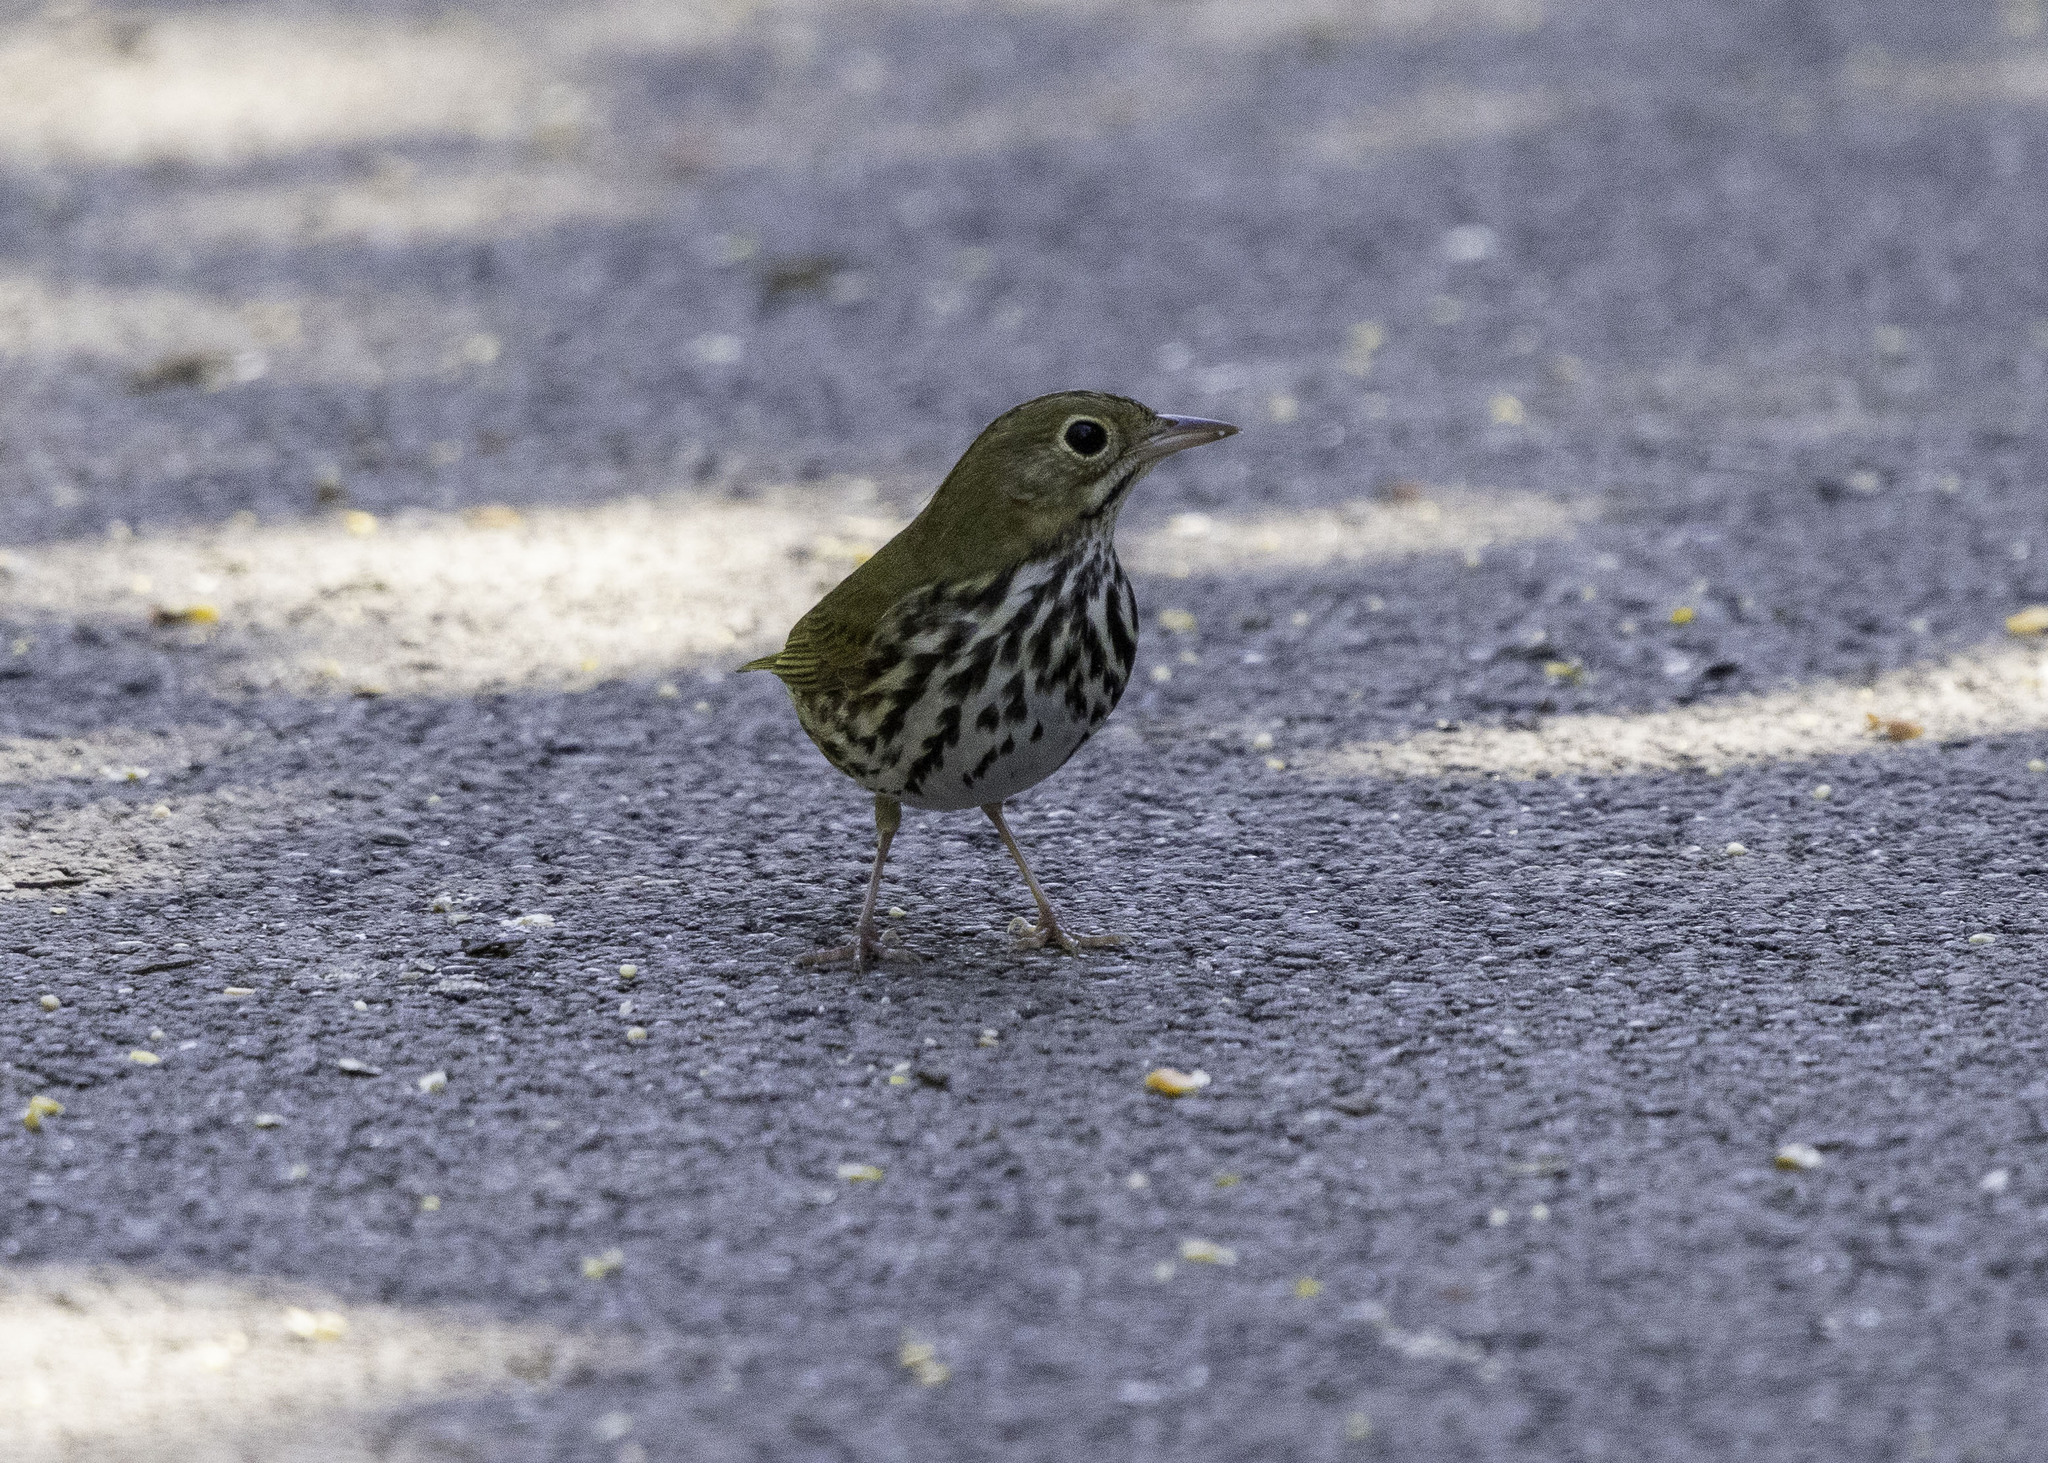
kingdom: Animalia
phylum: Chordata
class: Aves
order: Passeriformes
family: Parulidae
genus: Seiurus
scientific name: Seiurus aurocapilla
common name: Ovenbird
